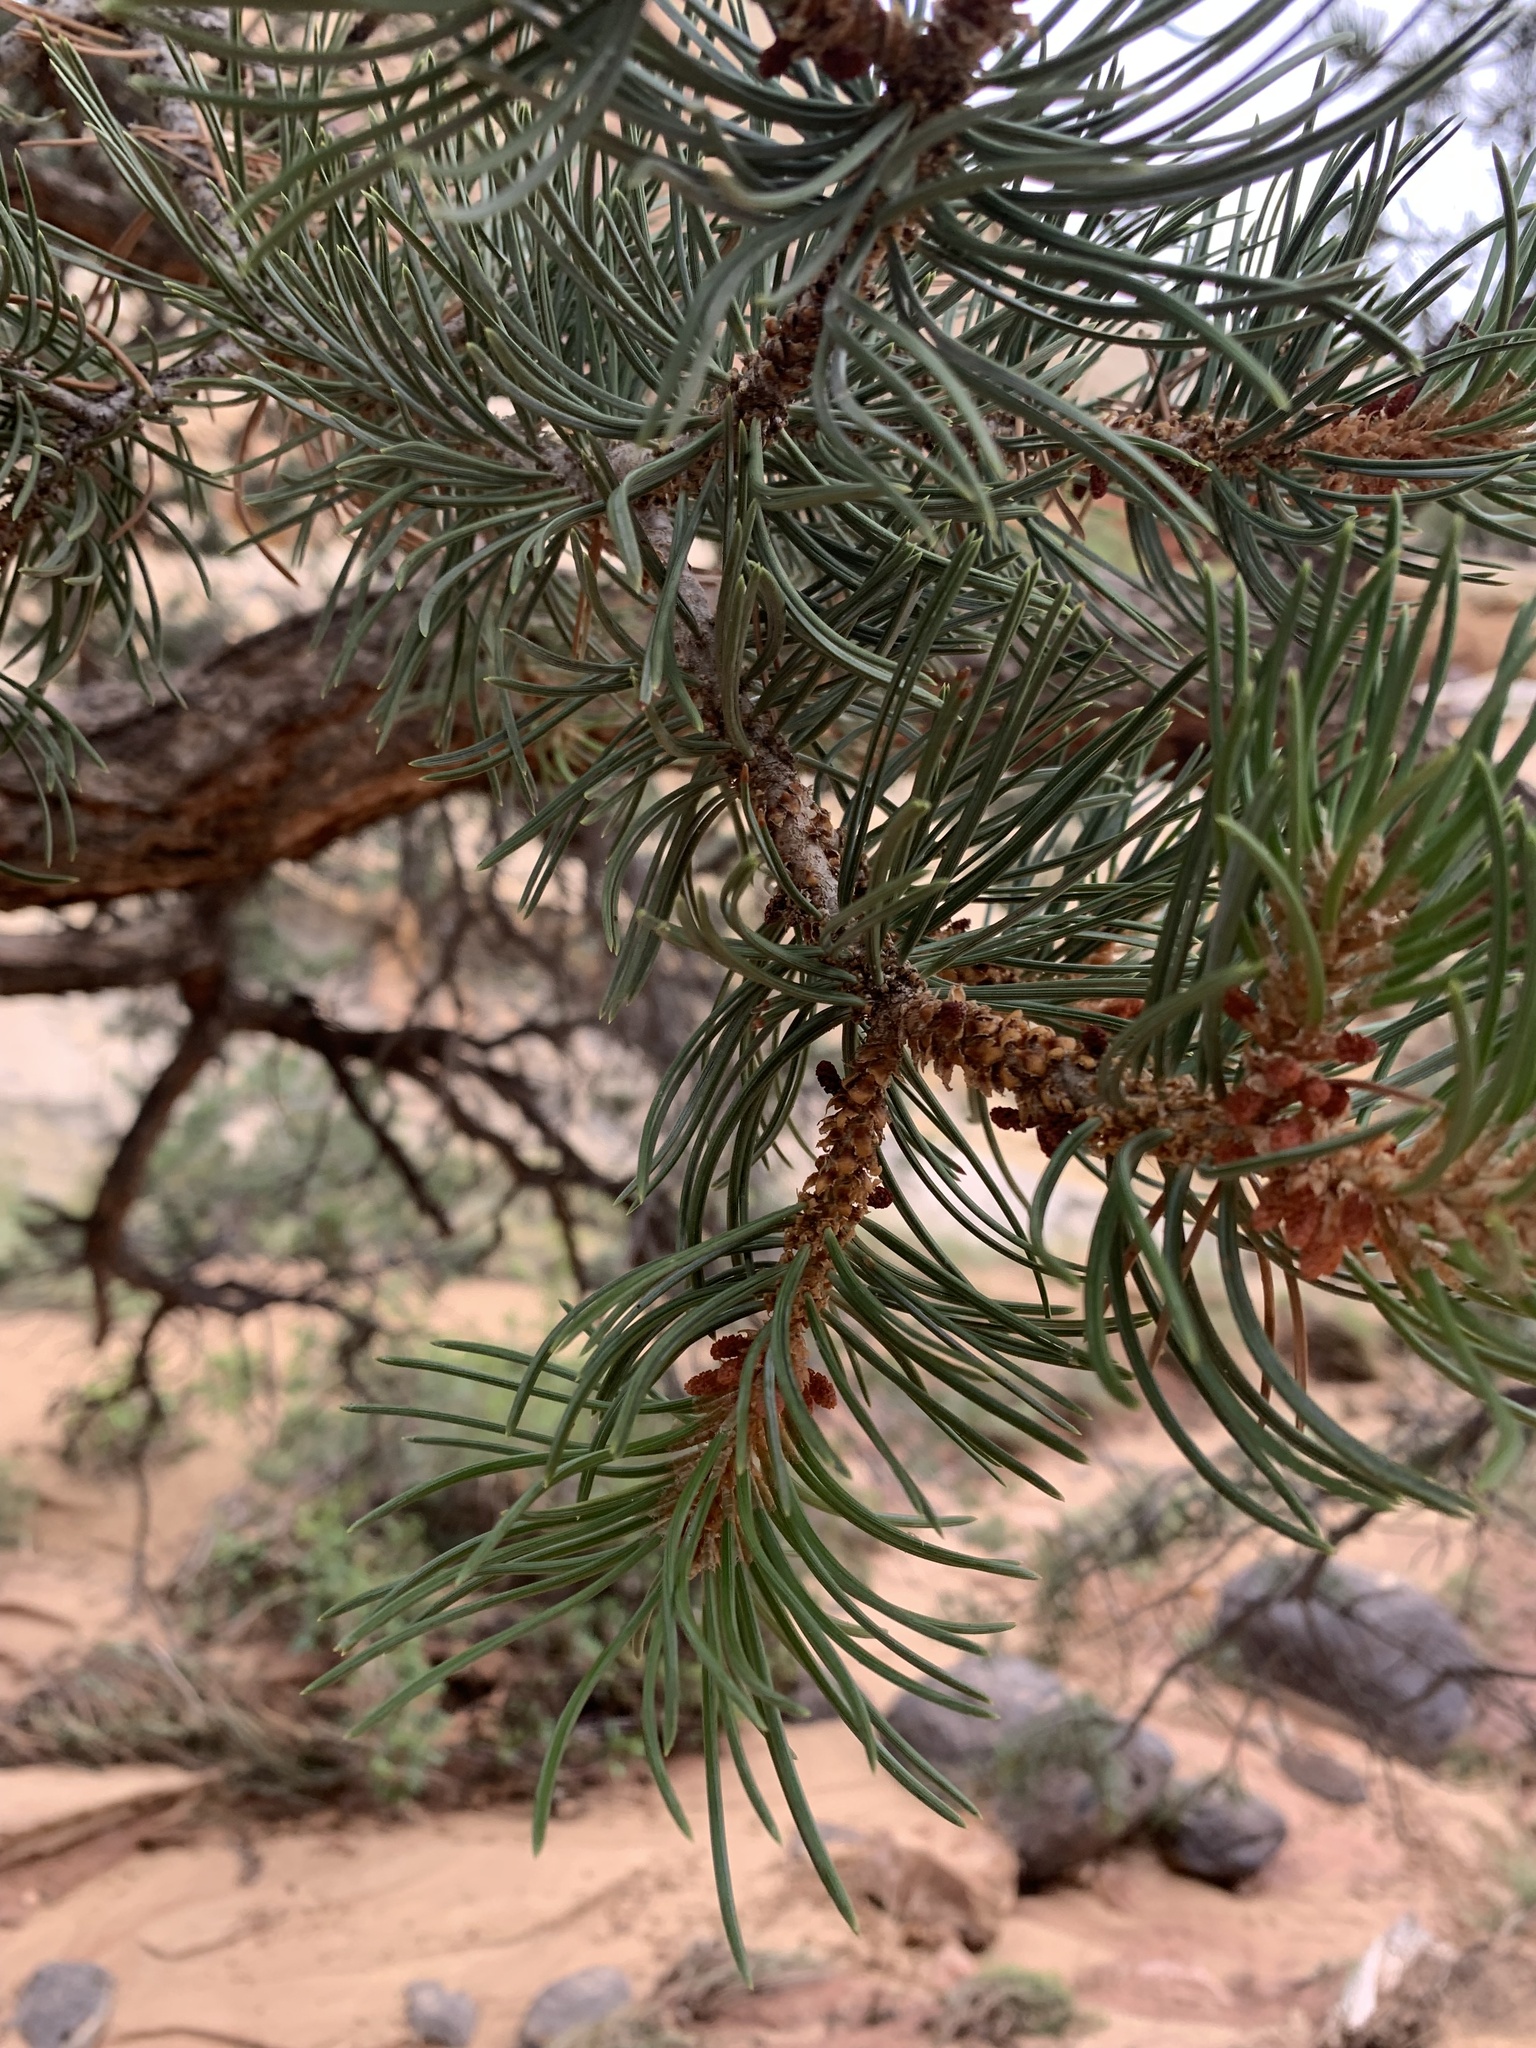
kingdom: Plantae
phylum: Tracheophyta
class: Pinopsida
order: Pinales
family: Pinaceae
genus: Pinus
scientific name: Pinus edulis
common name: Colorado pinyon
